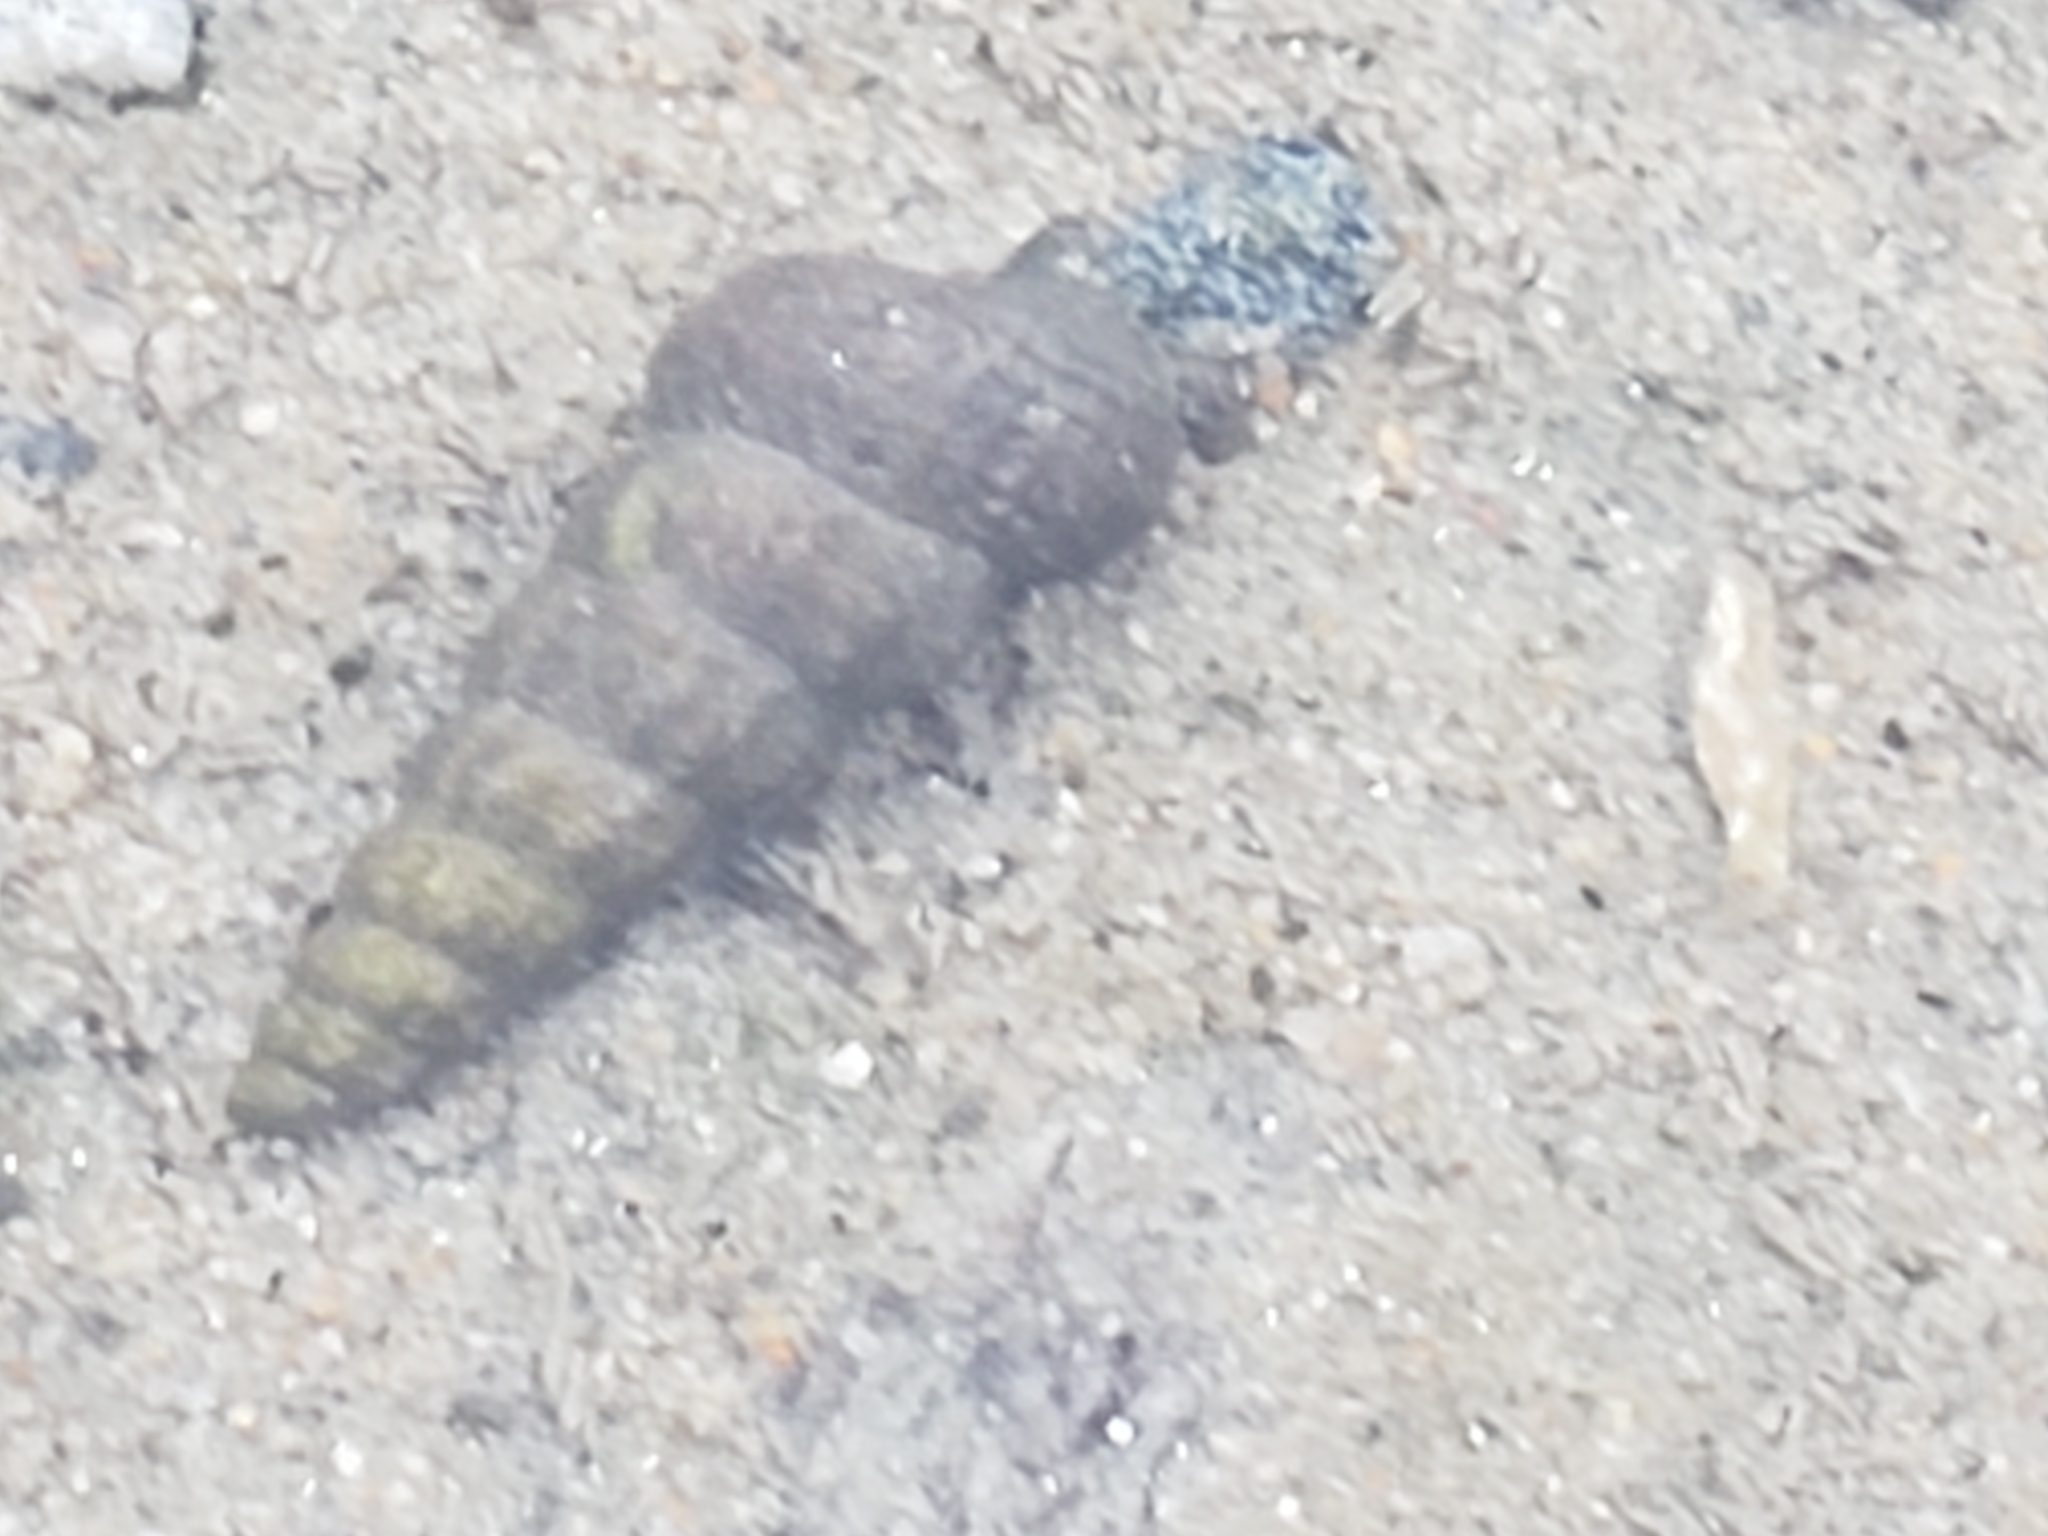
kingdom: Animalia
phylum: Mollusca
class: Gastropoda
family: Potamididae
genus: Cerithideopsis
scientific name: Cerithideopsis californica
